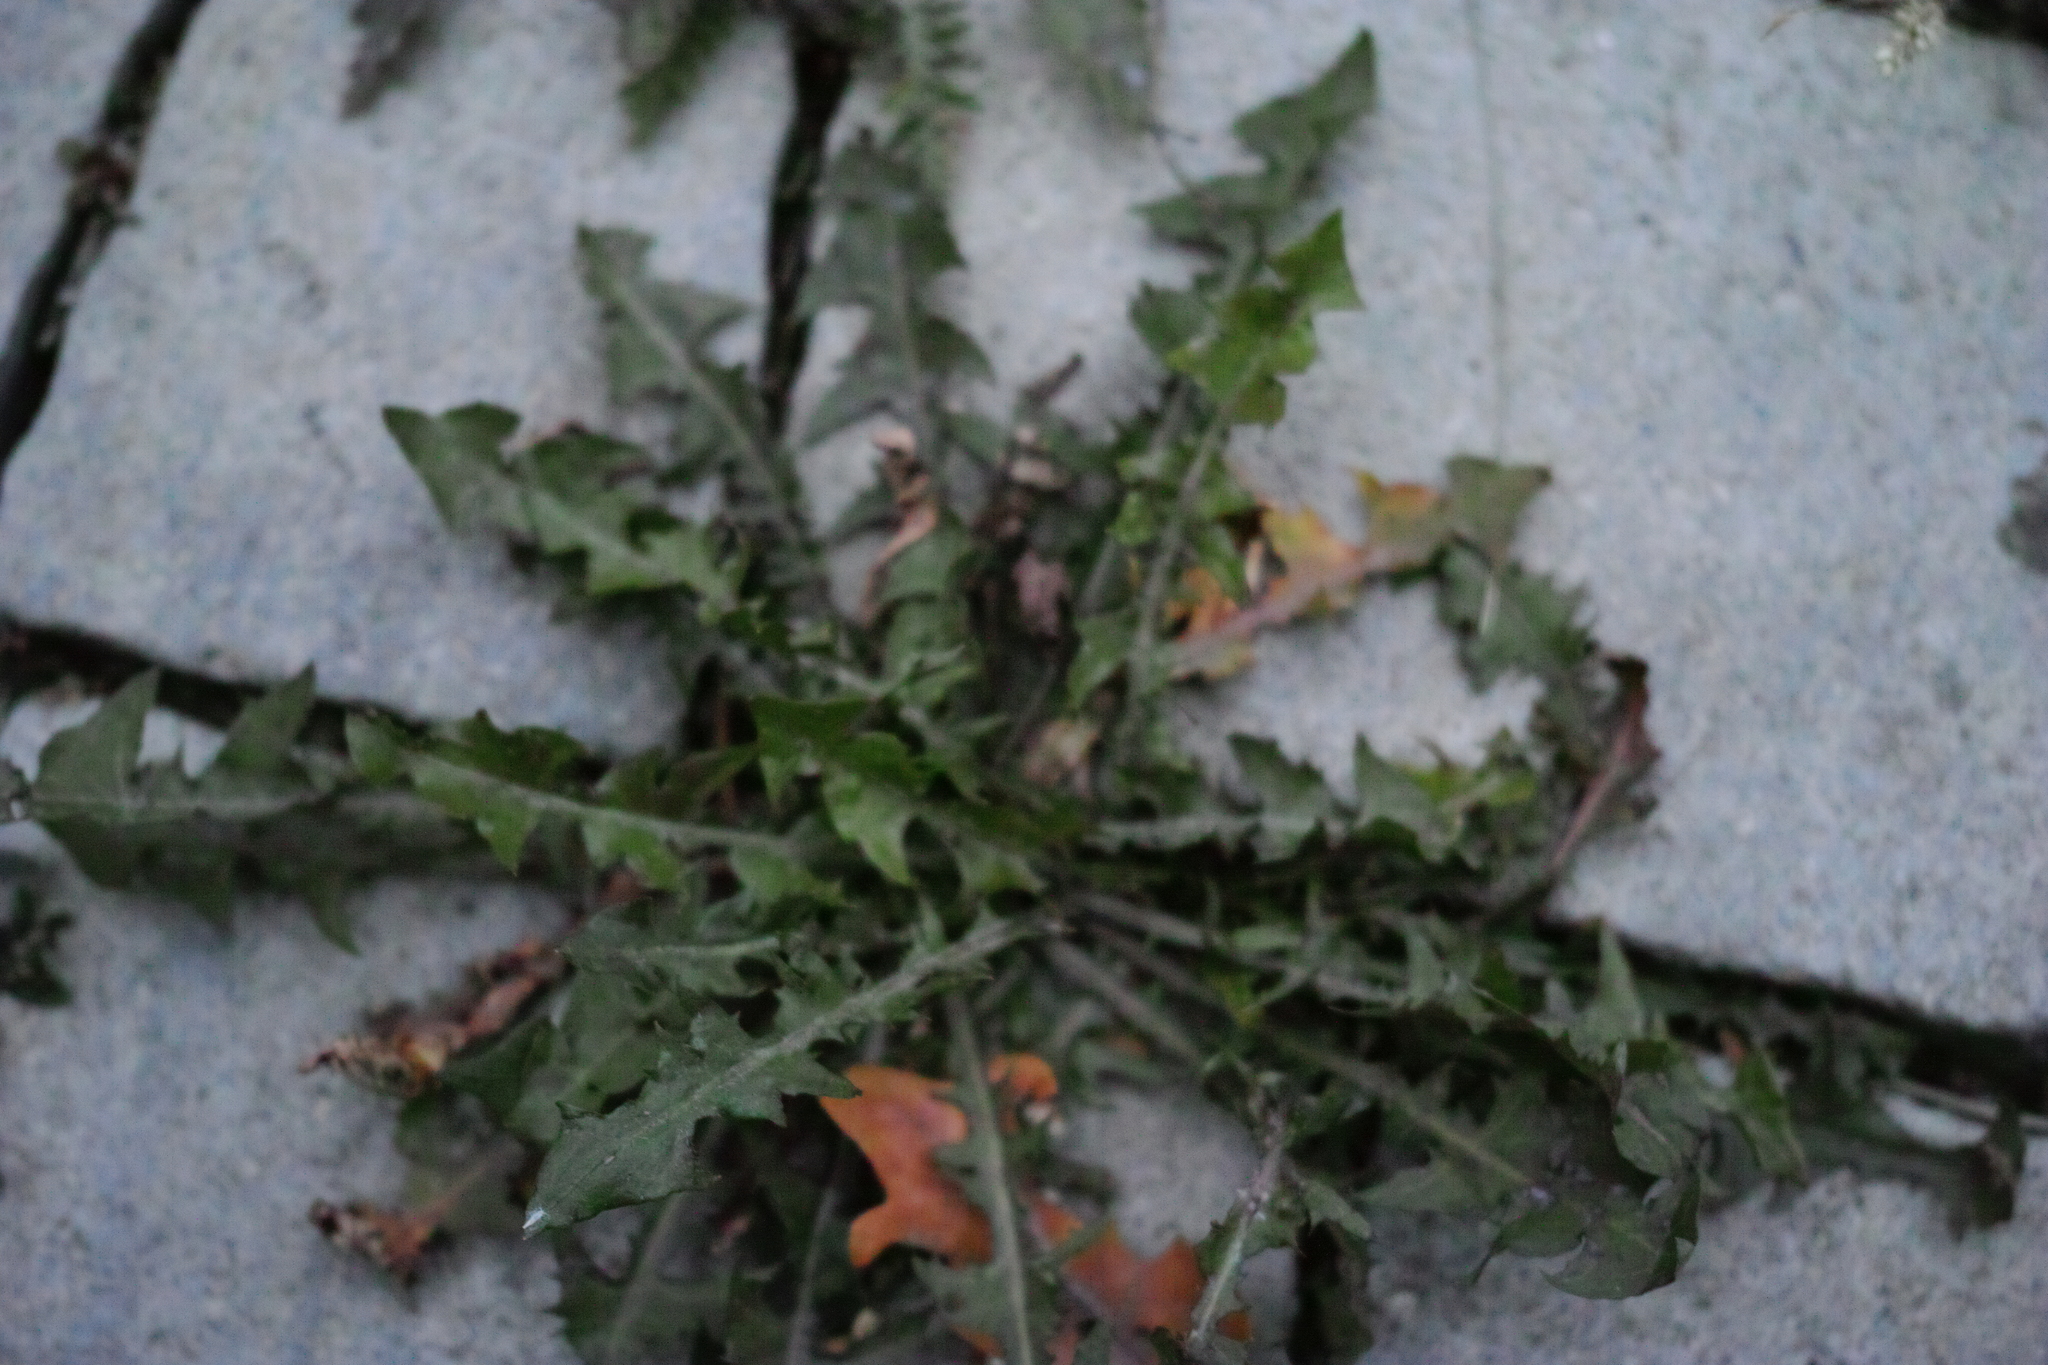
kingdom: Plantae
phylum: Tracheophyta
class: Magnoliopsida
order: Asterales
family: Asteraceae
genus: Taraxacum
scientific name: Taraxacum officinale
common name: Common dandelion
